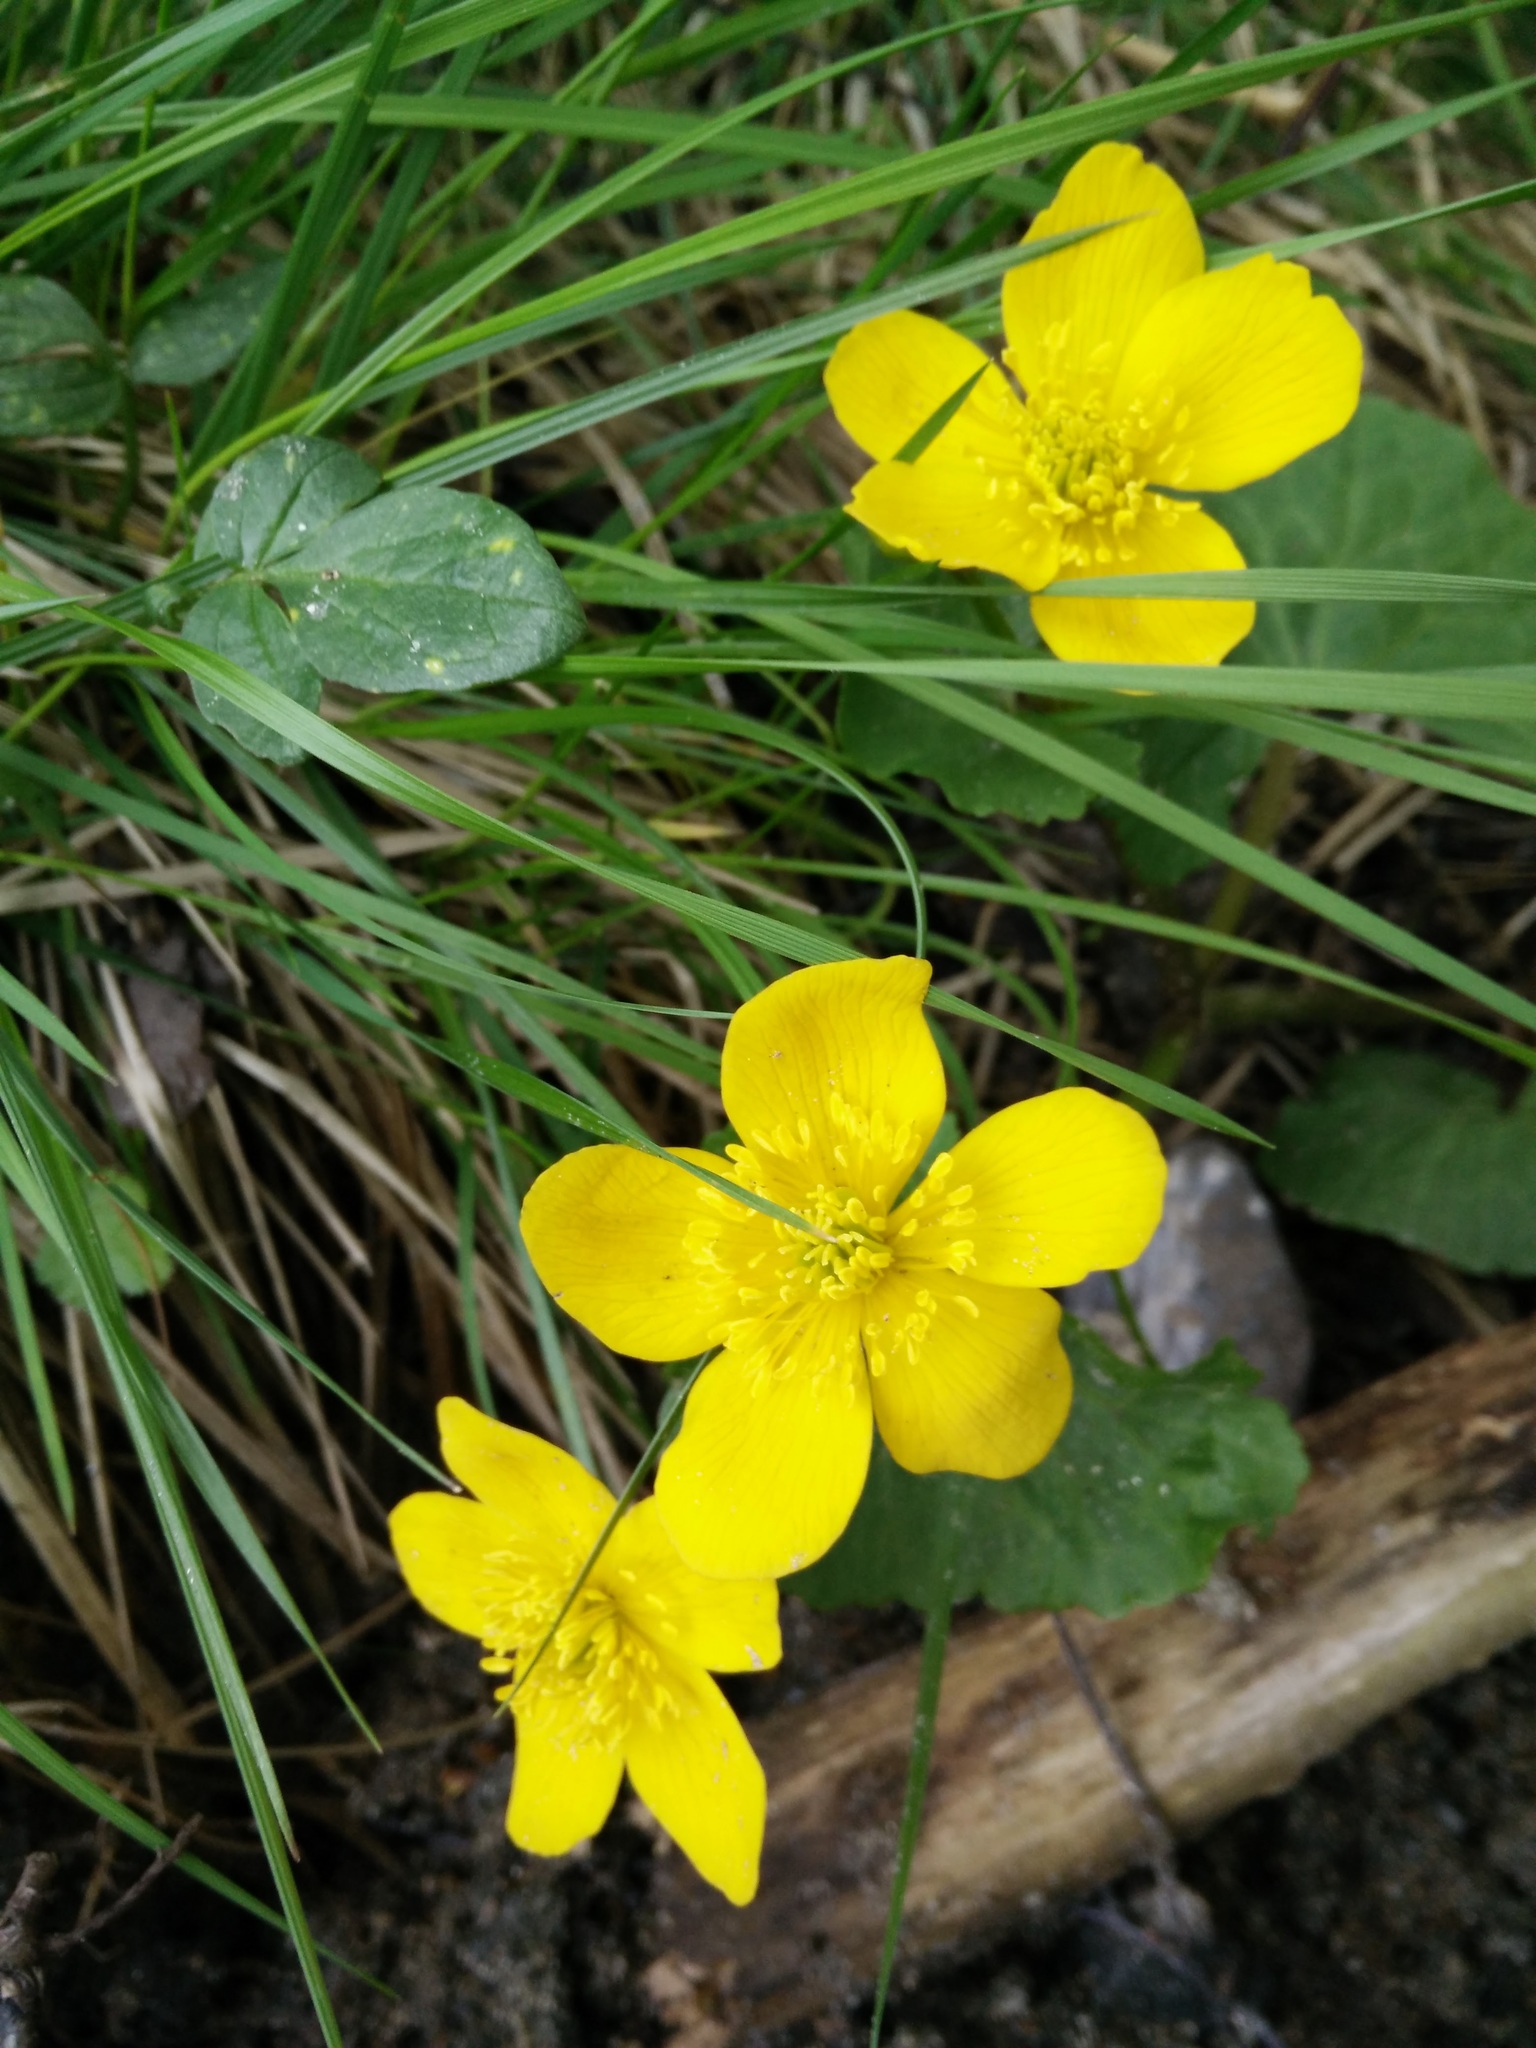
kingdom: Plantae
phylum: Tracheophyta
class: Magnoliopsida
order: Ranunculales
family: Ranunculaceae
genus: Caltha
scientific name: Caltha palustris
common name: Marsh marigold
